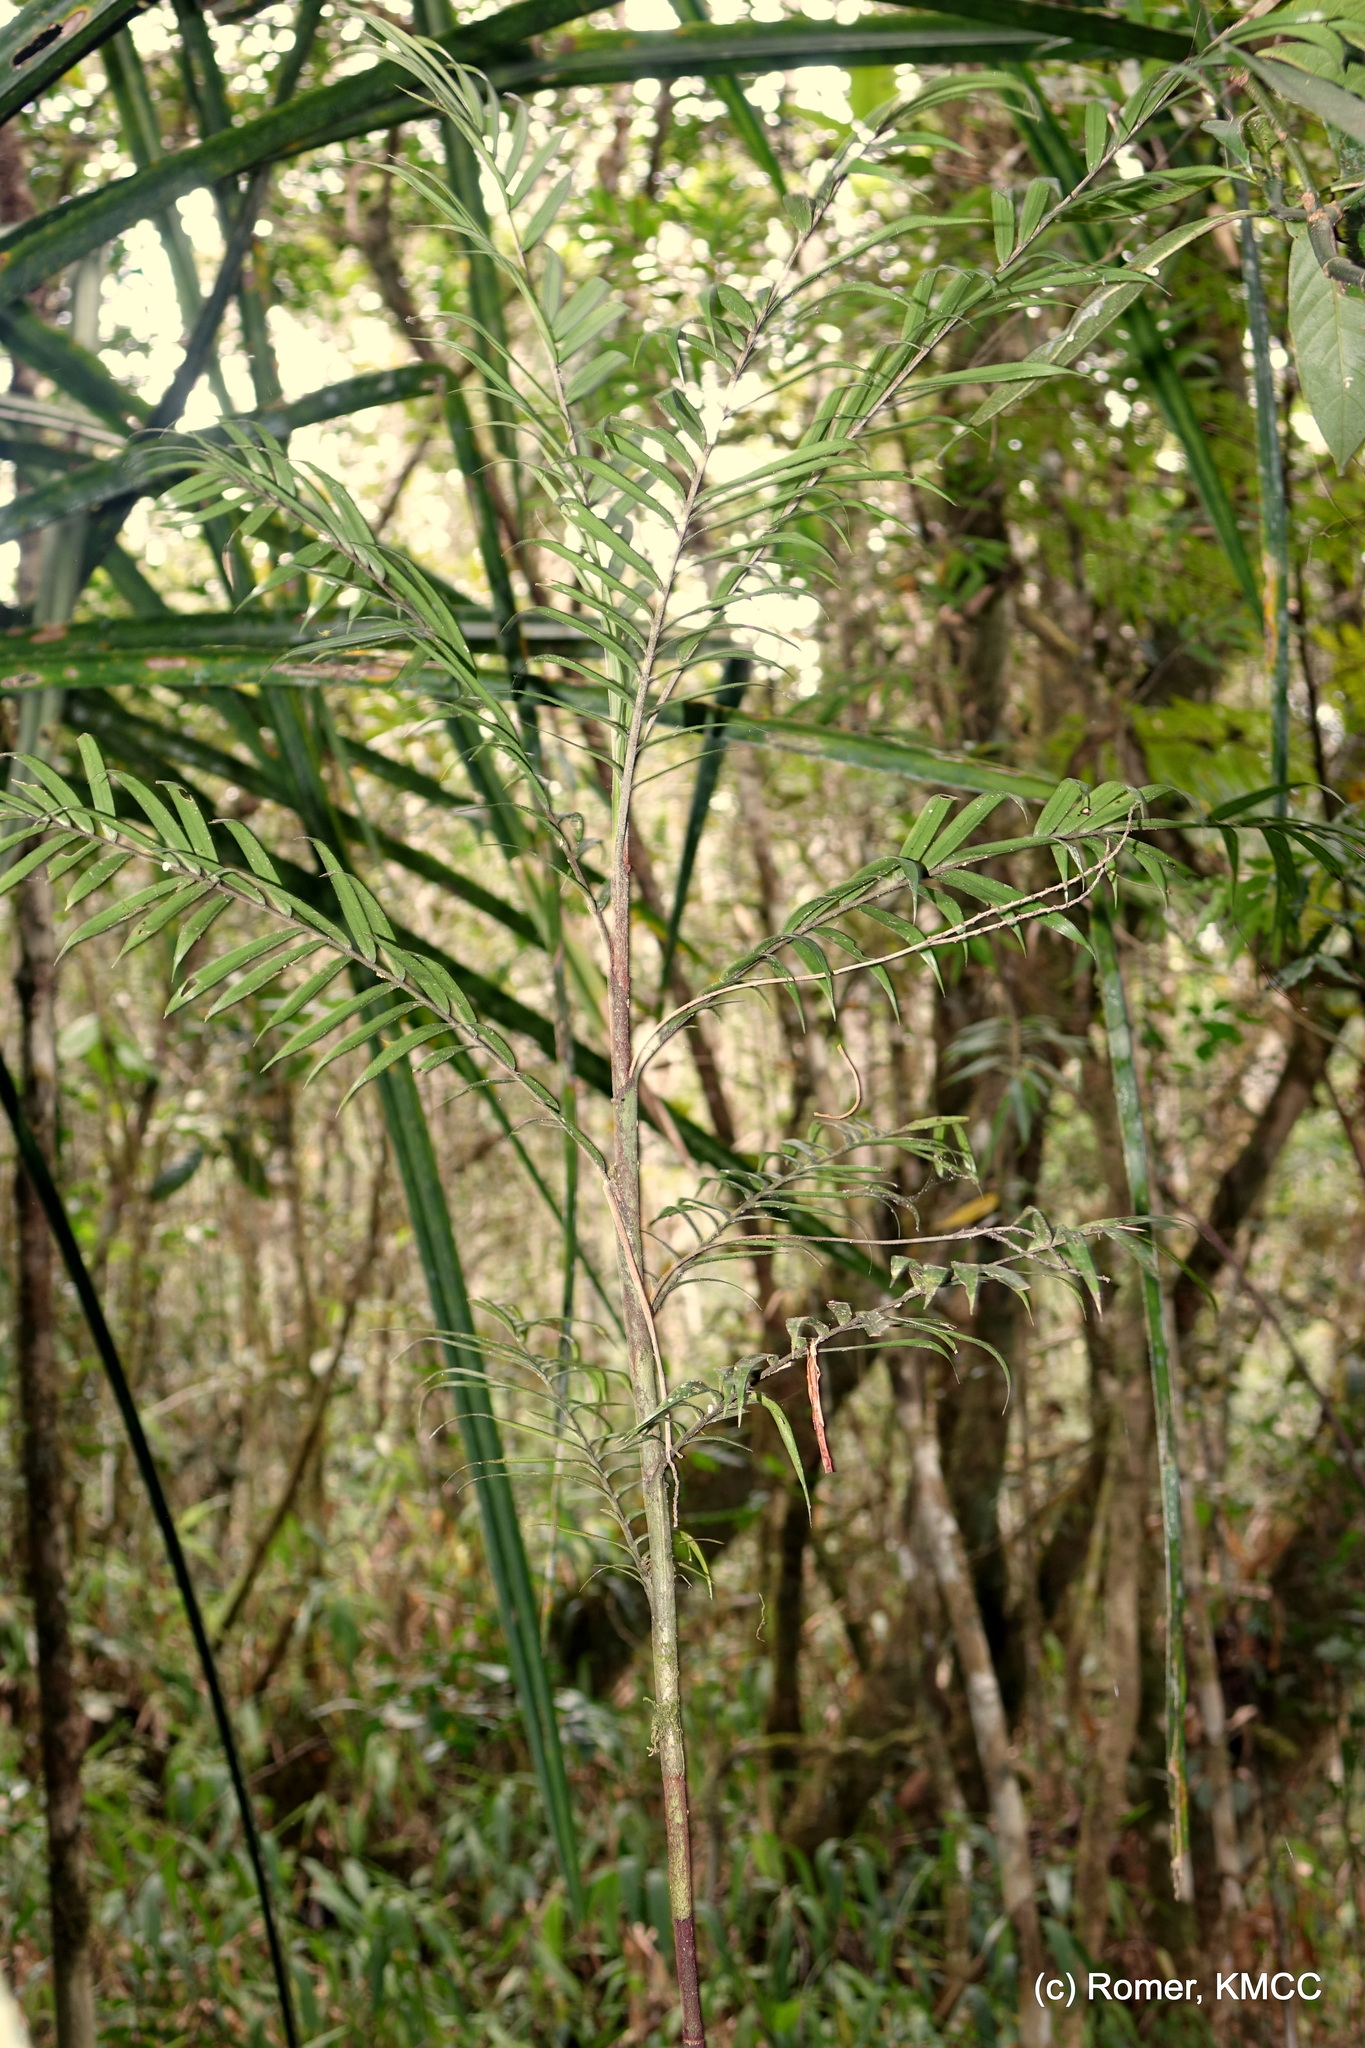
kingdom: Plantae
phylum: Tracheophyta
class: Liliopsida
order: Arecales
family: Arecaceae
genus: Dypsis
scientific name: Dypsis concinna
